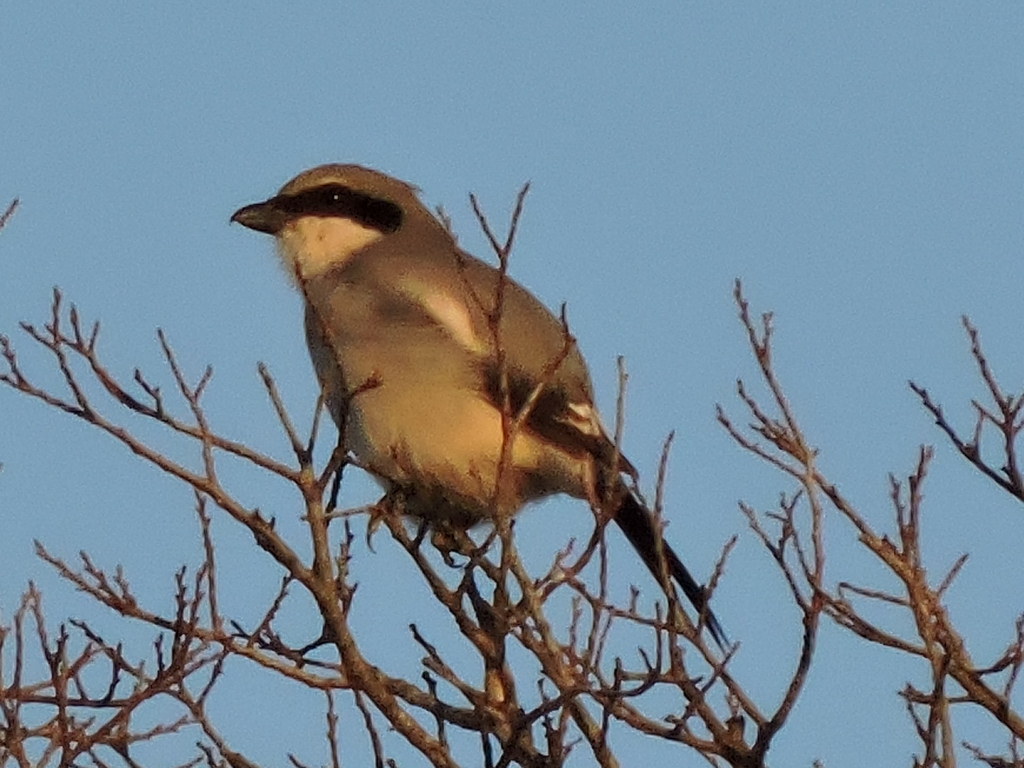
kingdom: Animalia
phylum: Chordata
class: Aves
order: Passeriformes
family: Laniidae
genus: Lanius
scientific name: Lanius ludovicianus
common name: Loggerhead shrike
